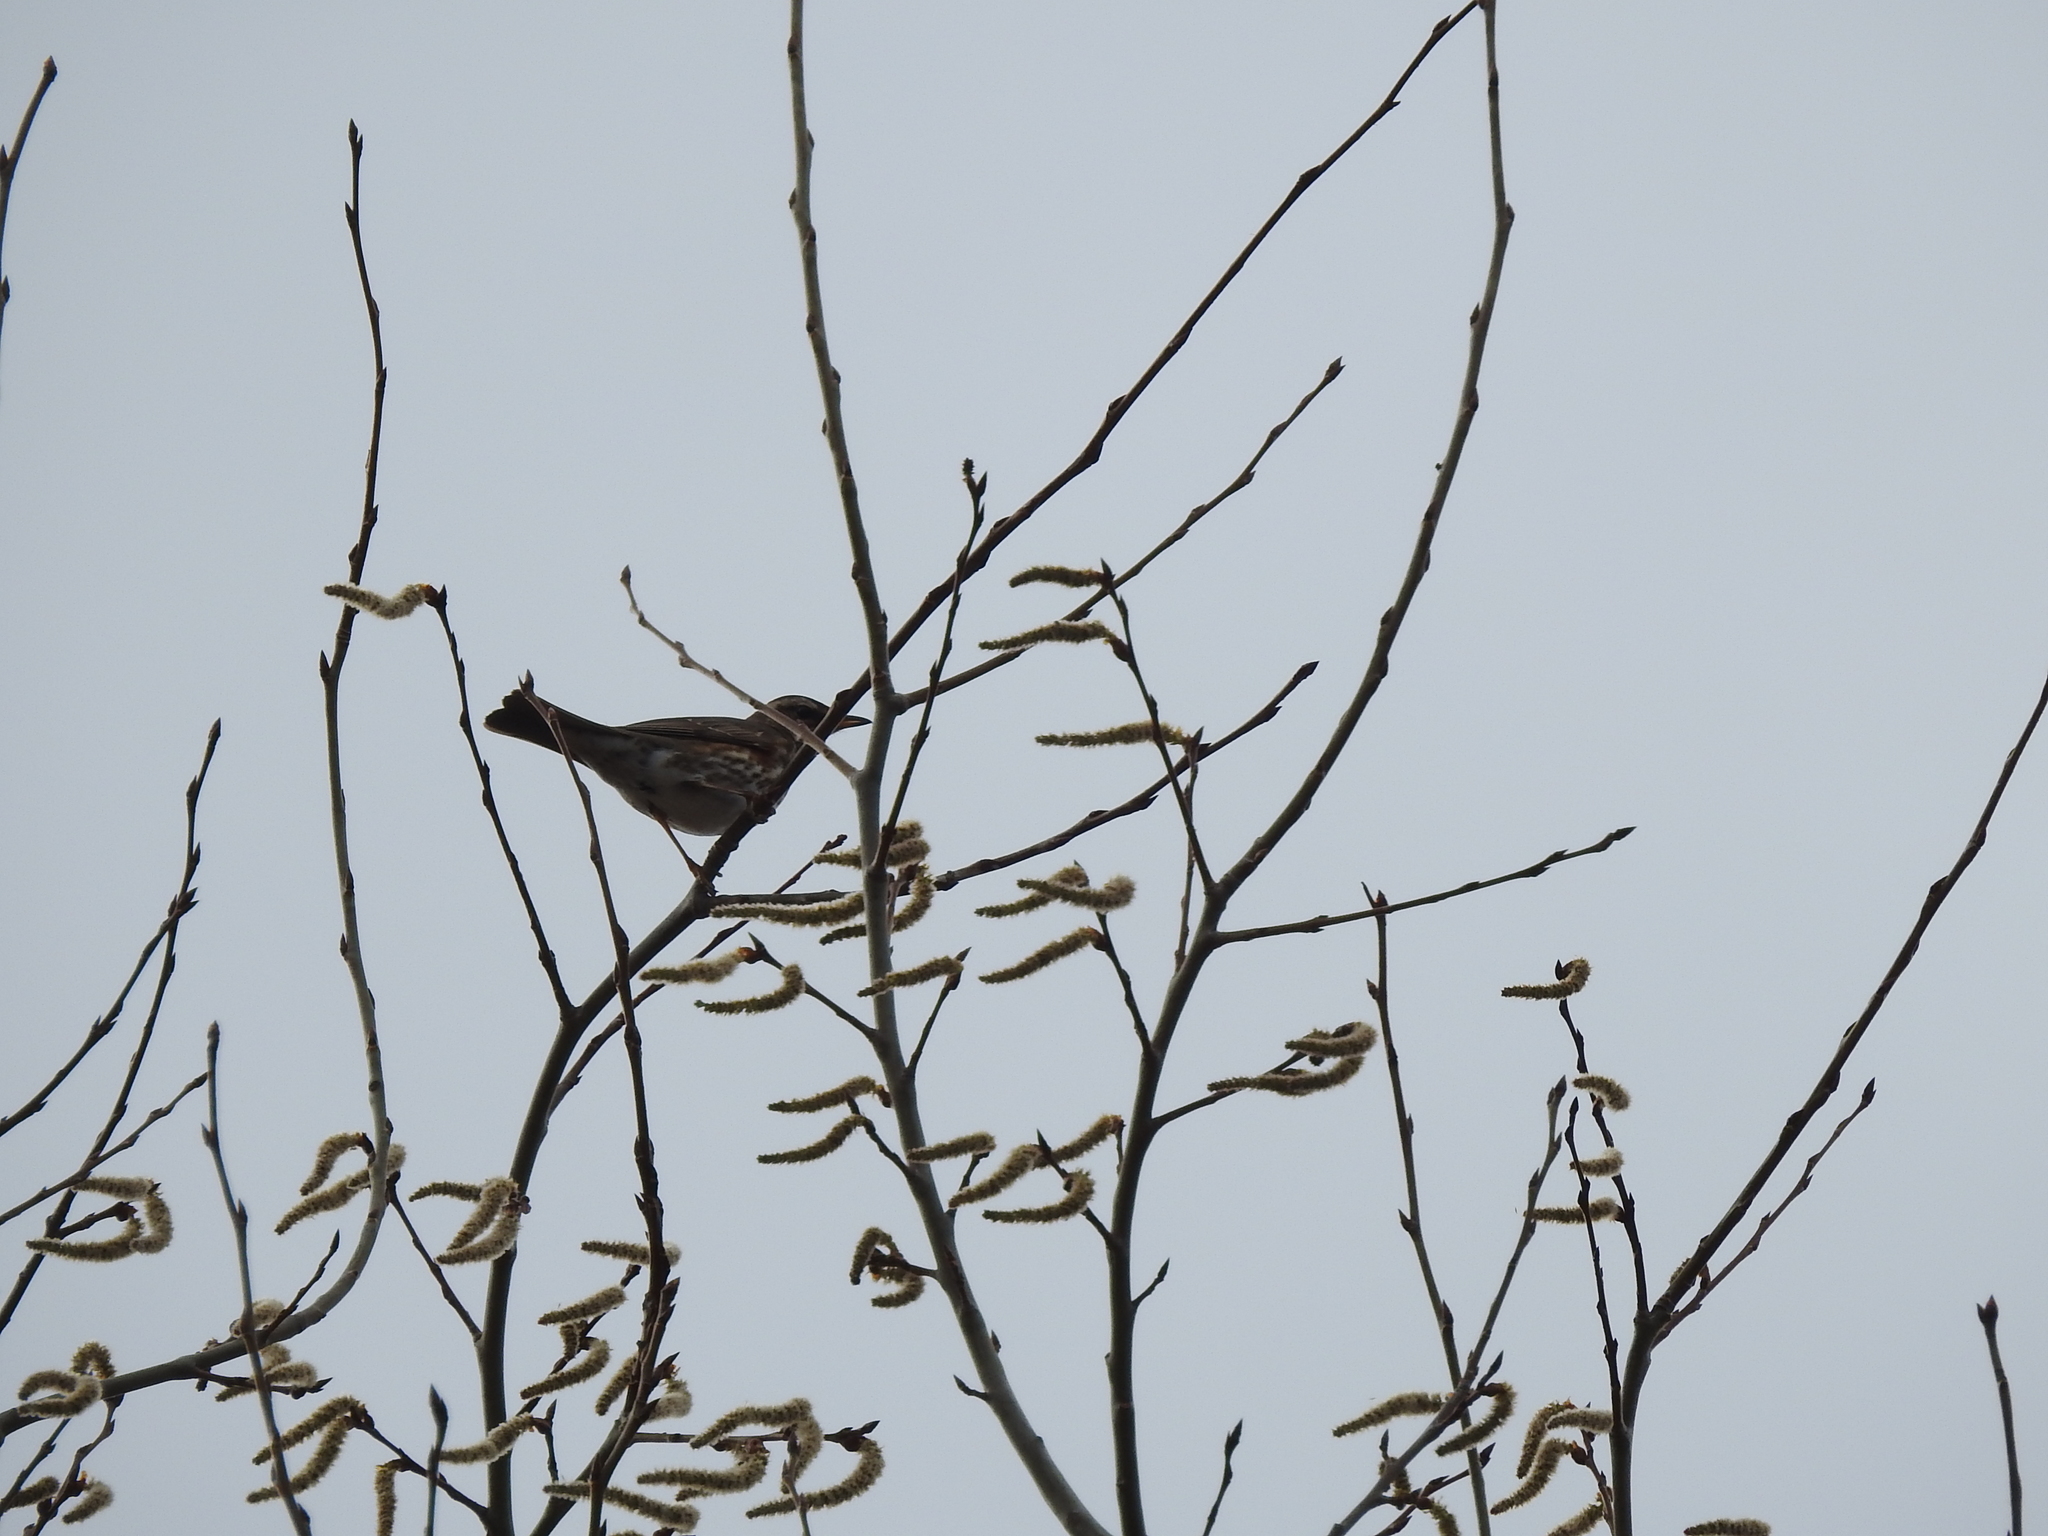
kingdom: Animalia
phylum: Chordata
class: Aves
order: Passeriformes
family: Turdidae
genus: Turdus
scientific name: Turdus iliacus
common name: Redwing
